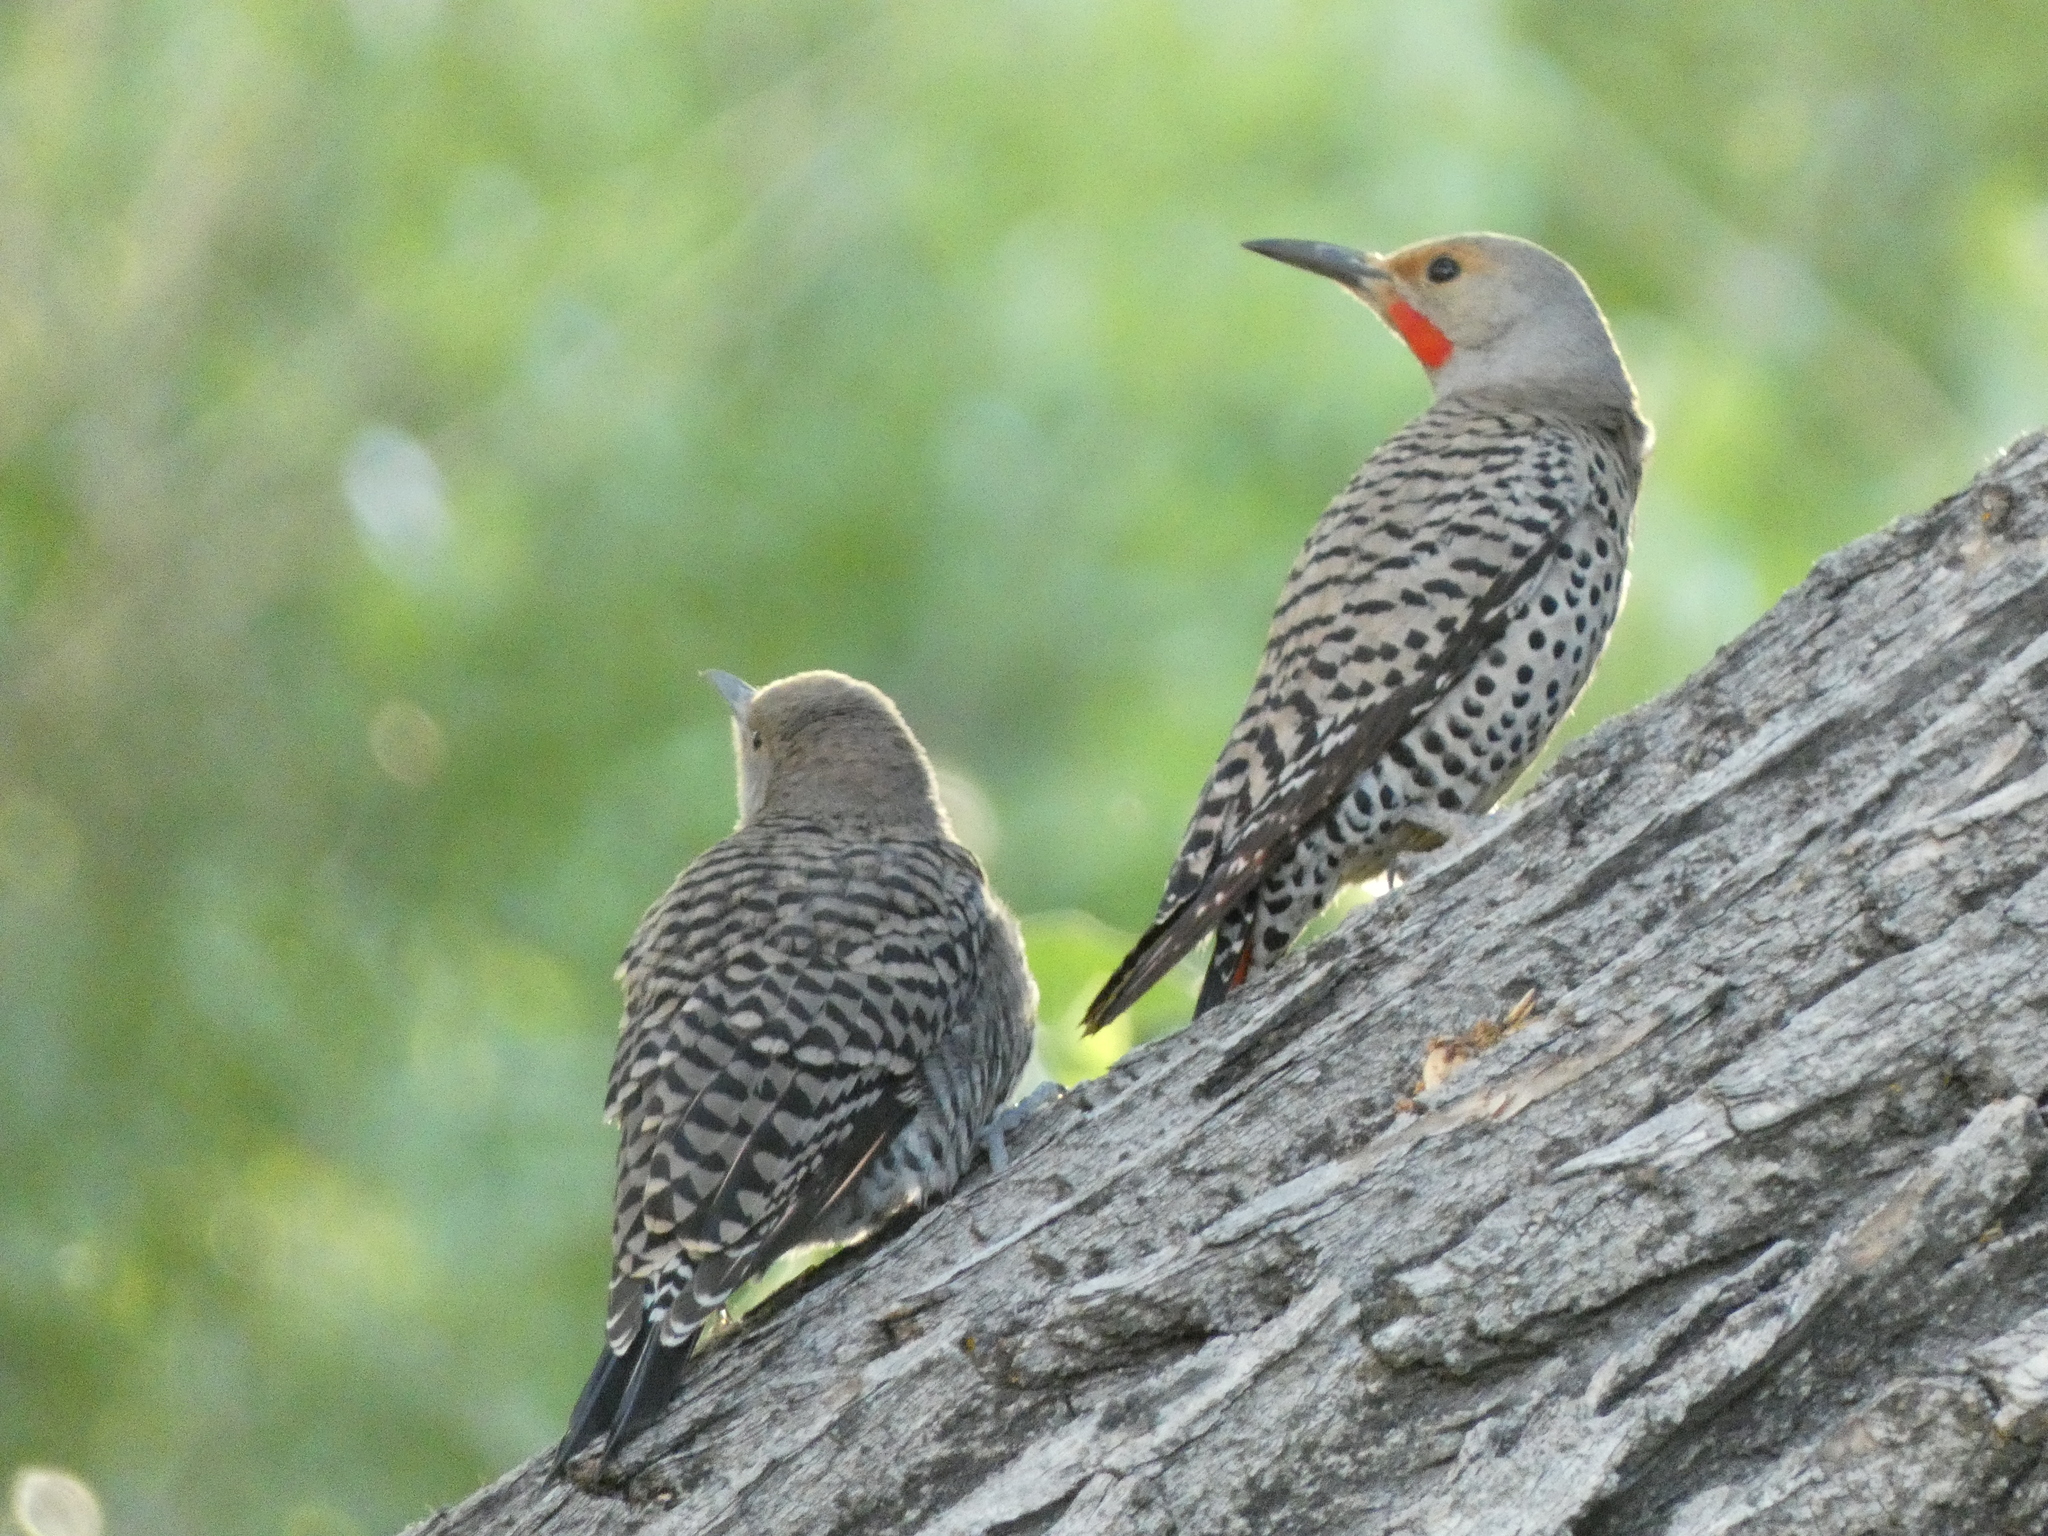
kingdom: Animalia
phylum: Chordata
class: Aves
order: Piciformes
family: Picidae
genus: Colaptes
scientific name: Colaptes auratus
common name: Northern flicker
